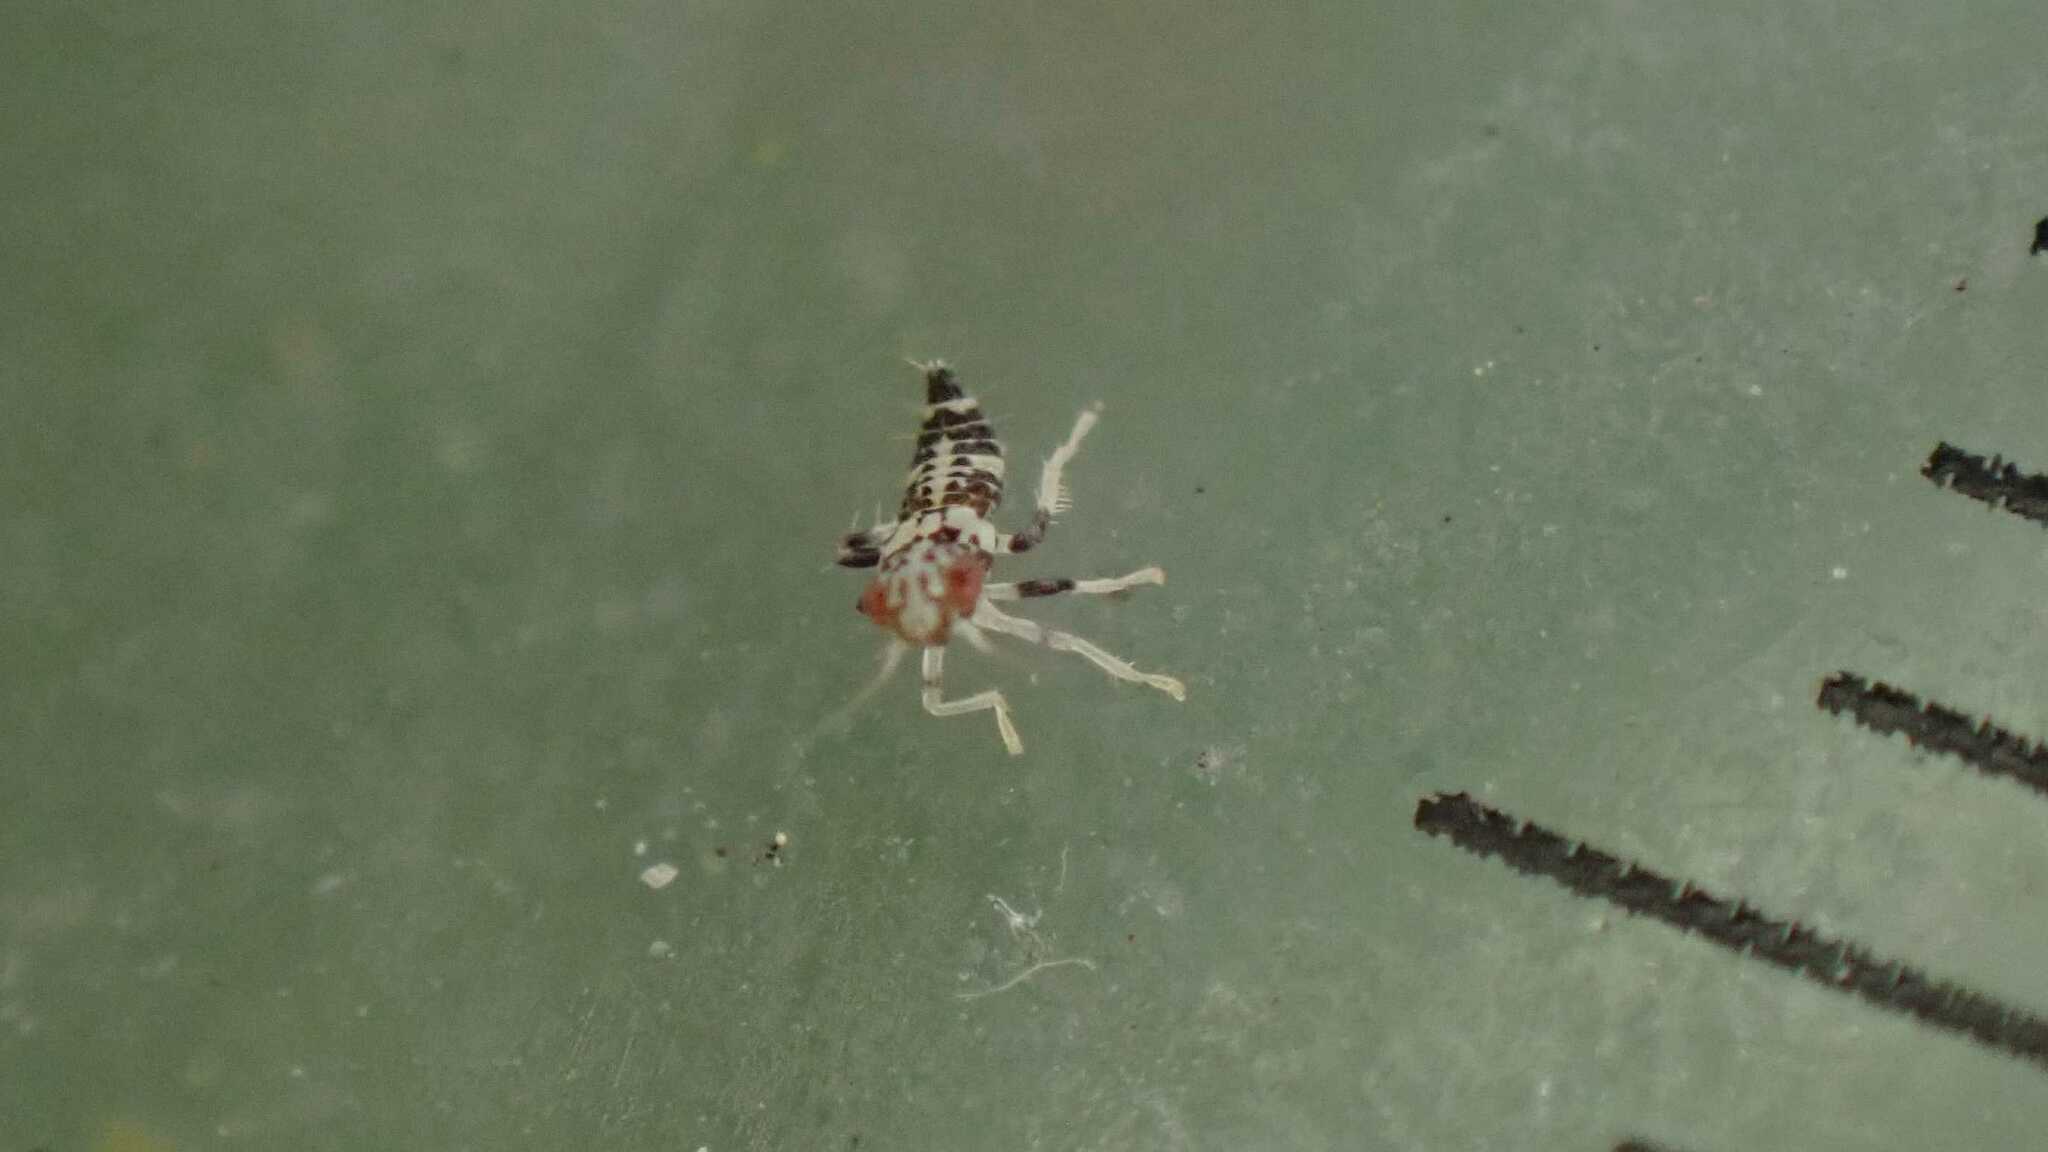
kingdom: Animalia
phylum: Arthropoda
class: Insecta
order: Hemiptera
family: Cicadellidae
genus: Orientus
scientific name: Orientus ishidae
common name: Japanese leafhopper
